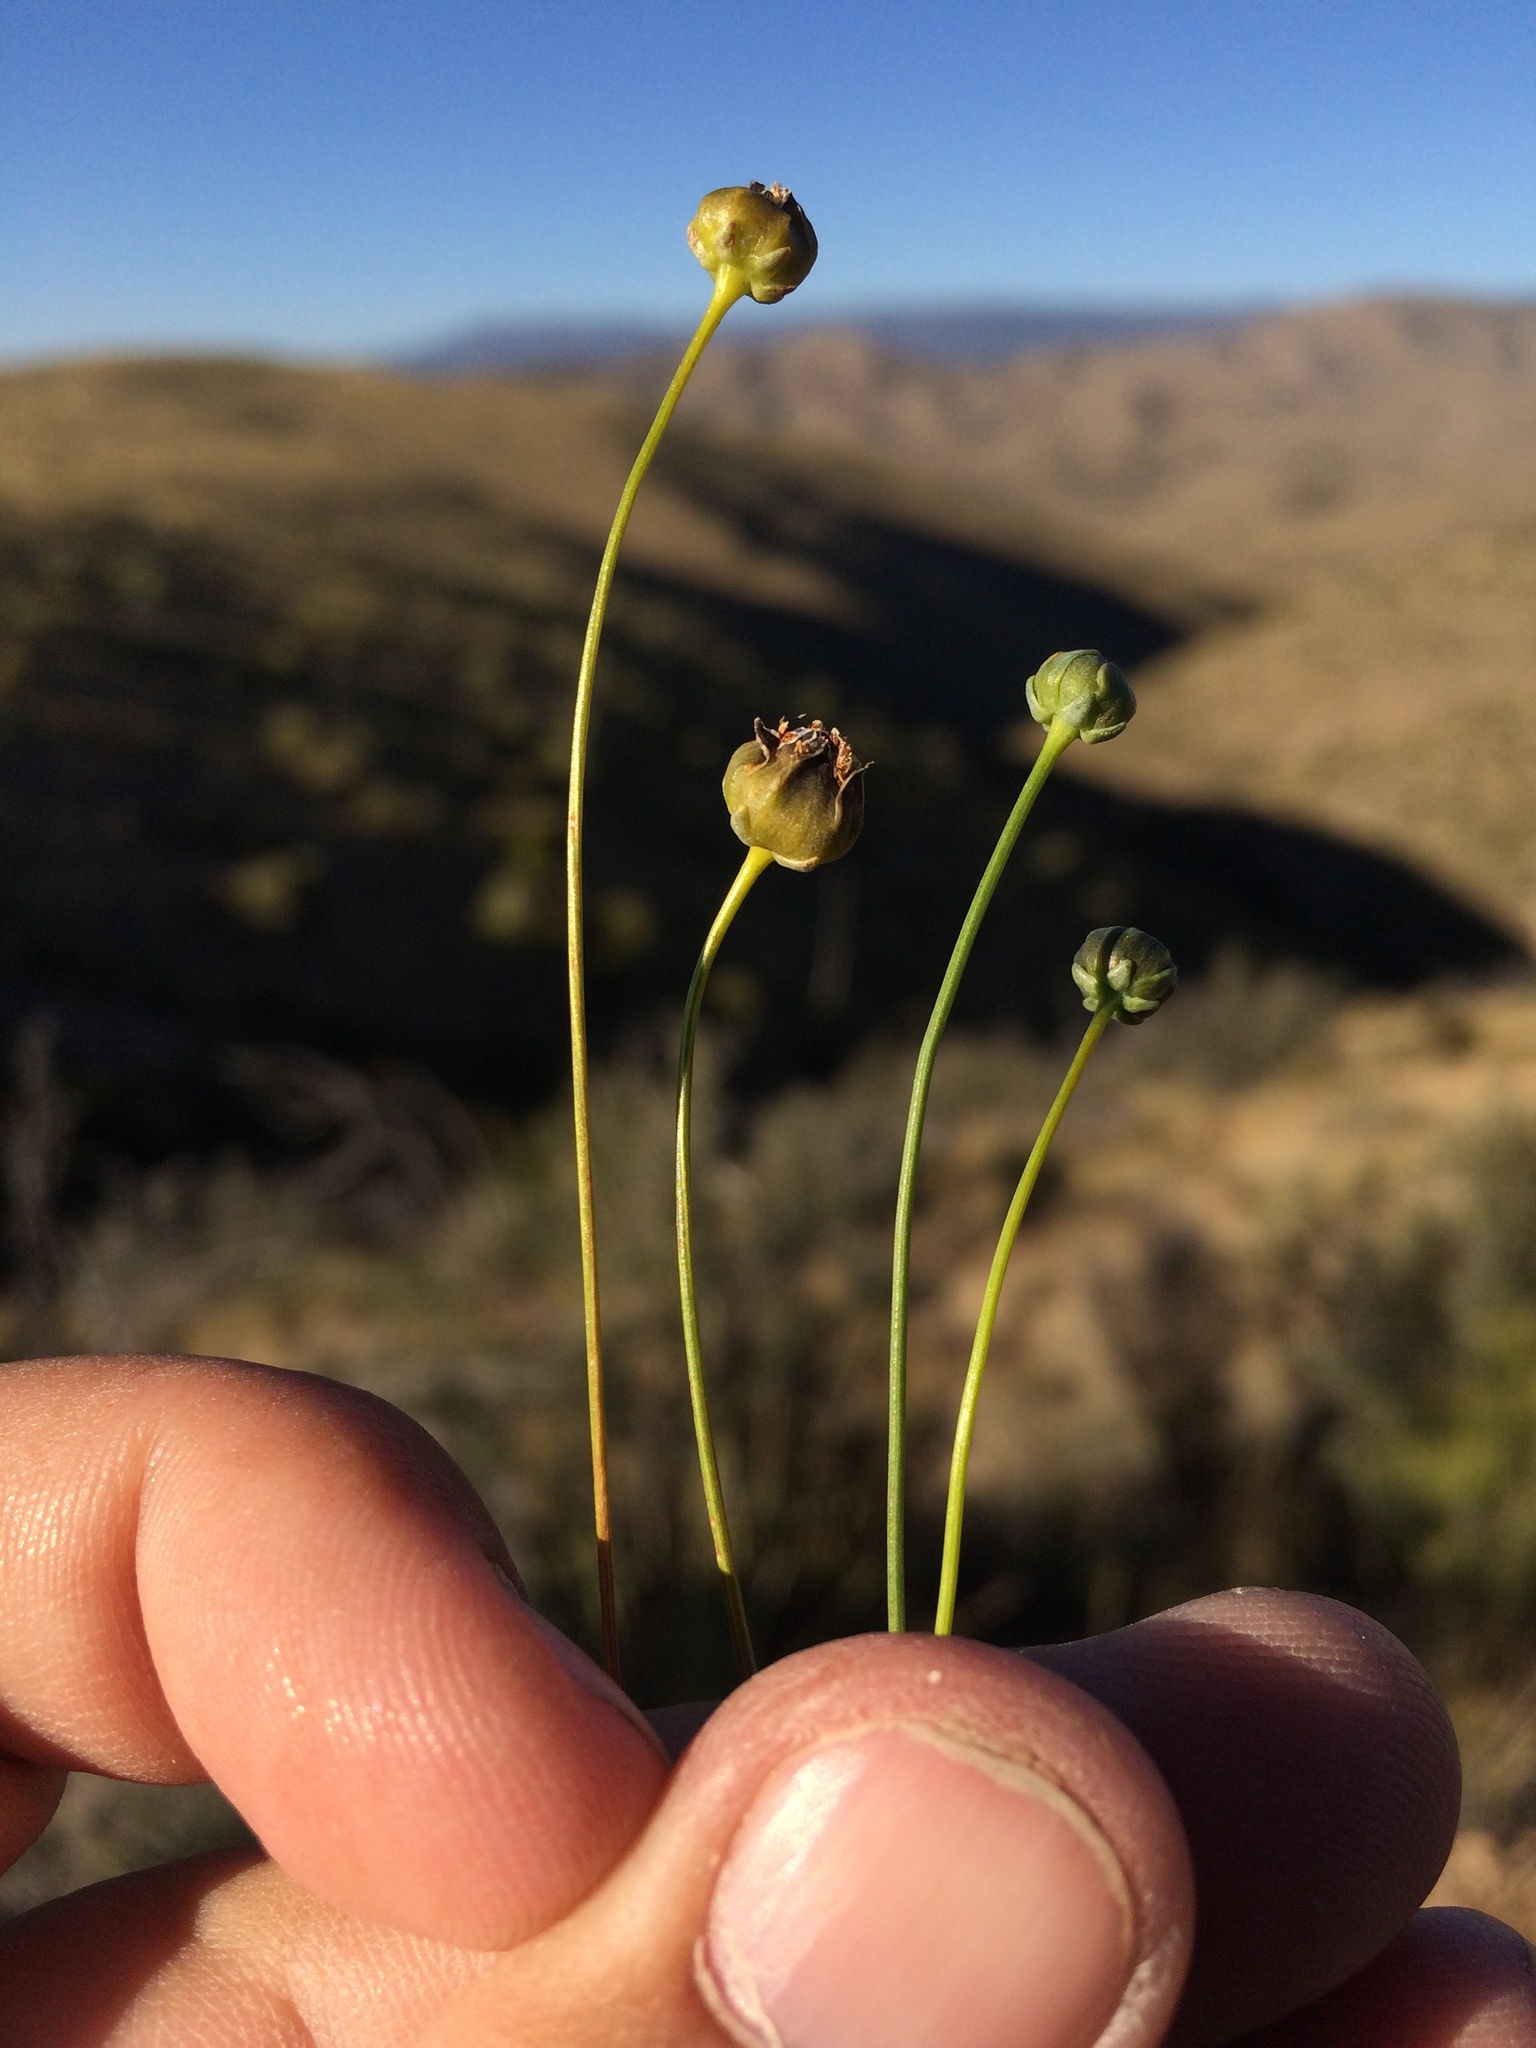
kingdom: Plantae
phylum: Tracheophyta
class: Magnoliopsida
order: Asterales
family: Asteraceae
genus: Thelesperma
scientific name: Thelesperma longipes
